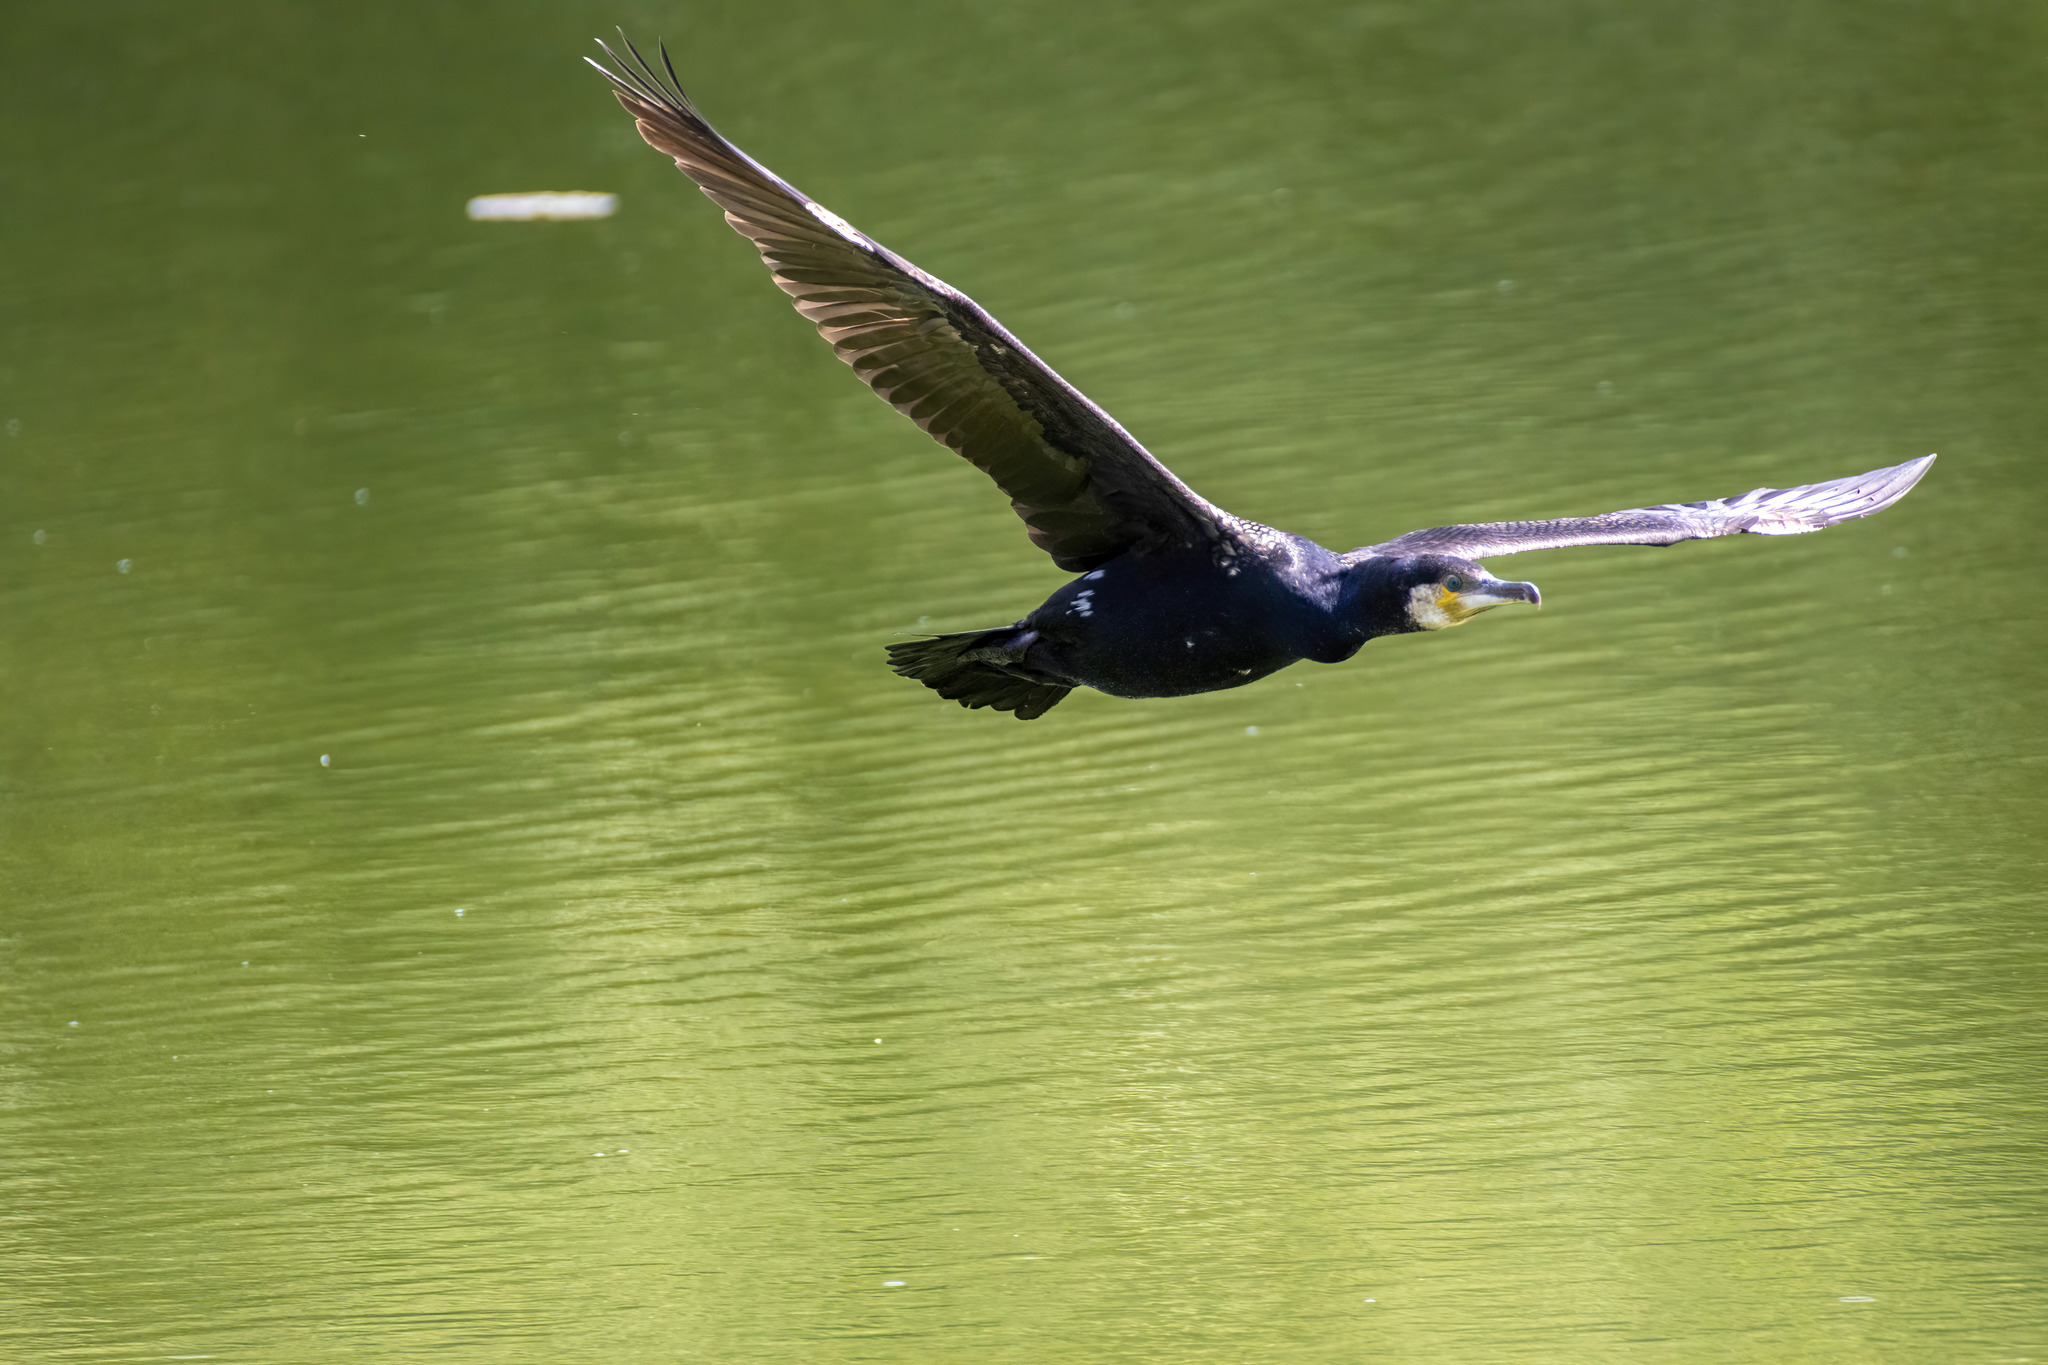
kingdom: Animalia
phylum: Chordata
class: Aves
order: Suliformes
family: Phalacrocoracidae
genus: Phalacrocorax
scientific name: Phalacrocorax carbo
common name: Great cormorant
